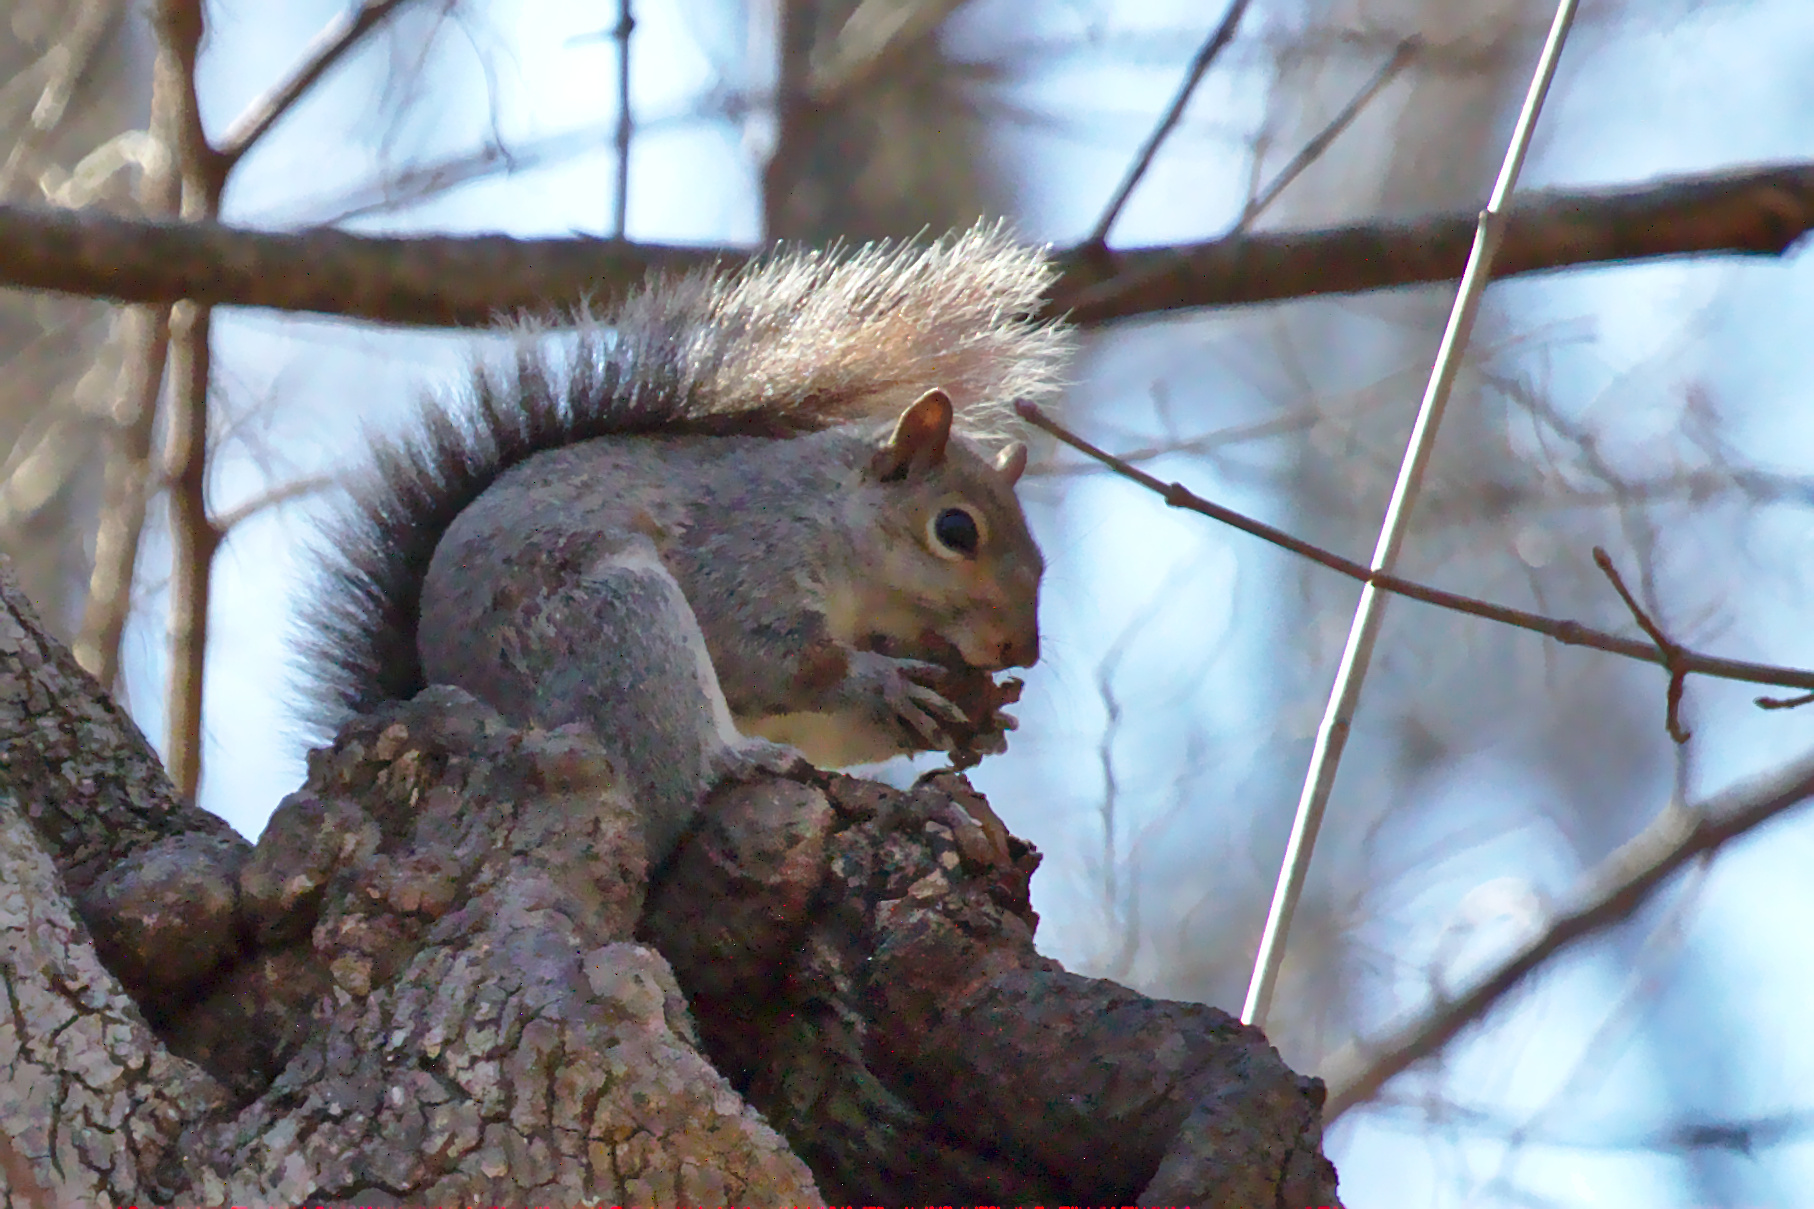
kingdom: Animalia
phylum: Chordata
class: Mammalia
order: Rodentia
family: Sciuridae
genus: Sciurus
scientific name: Sciurus carolinensis
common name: Eastern gray squirrel
